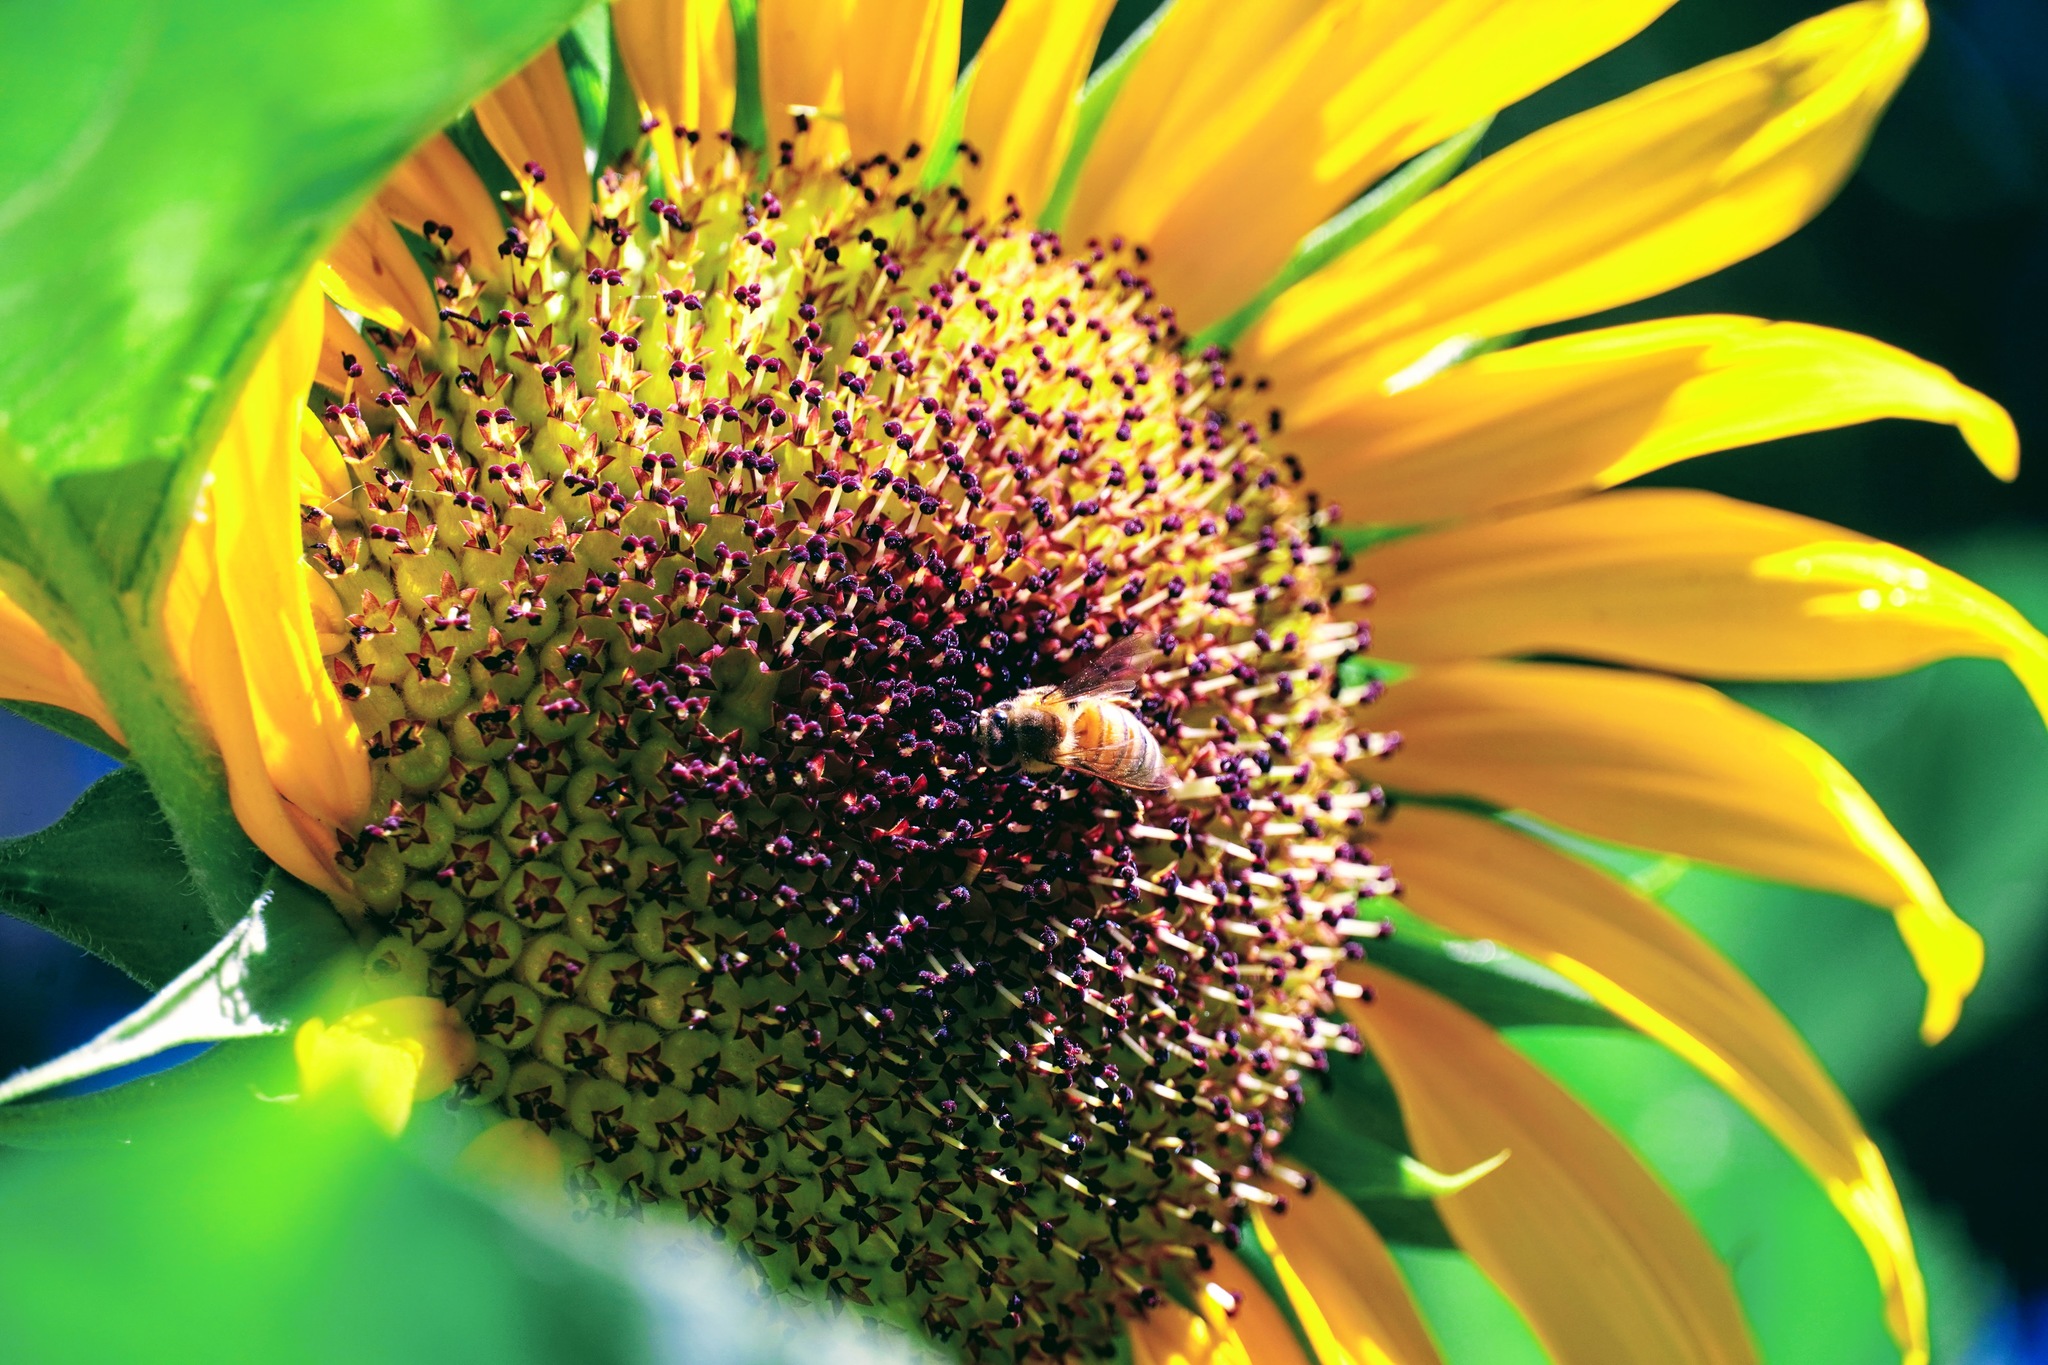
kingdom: Animalia
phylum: Arthropoda
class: Insecta
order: Hymenoptera
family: Apidae
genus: Apis
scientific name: Apis mellifera
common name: Honey bee
